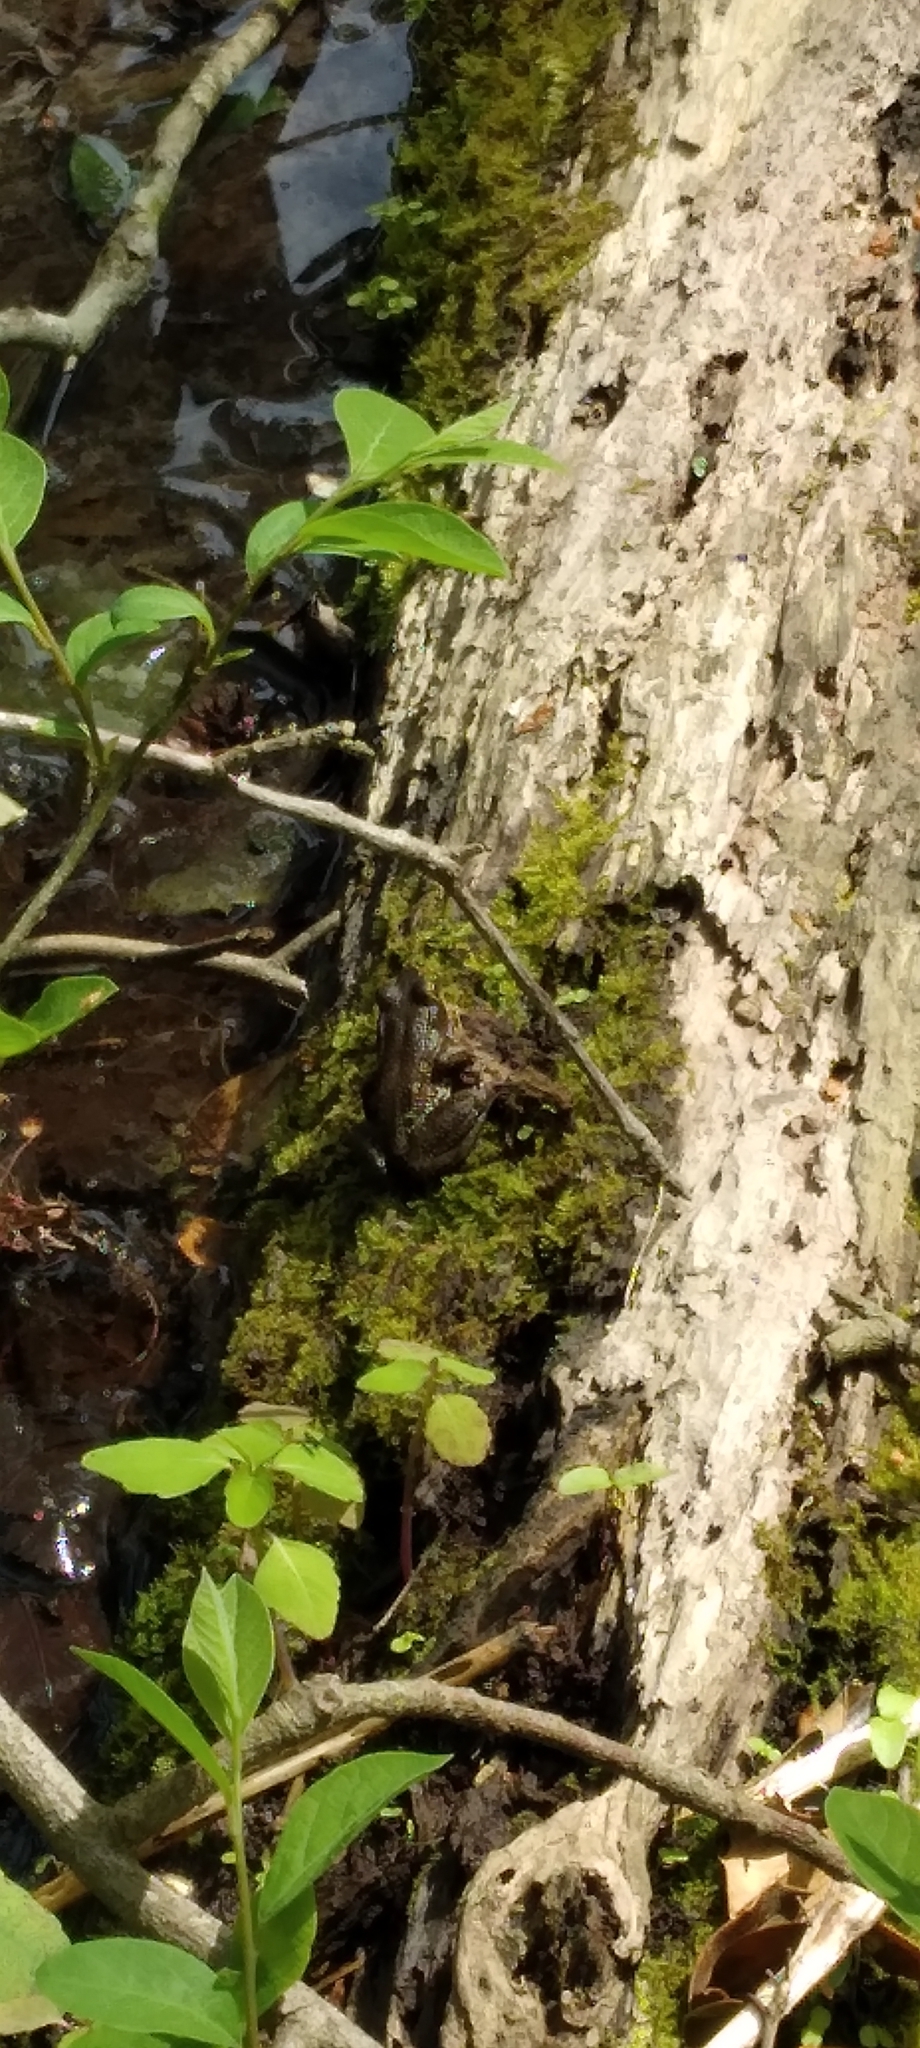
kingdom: Animalia
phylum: Chordata
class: Amphibia
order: Anura
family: Ranidae
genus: Lithobates
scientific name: Lithobates clamitans
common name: Green frog
